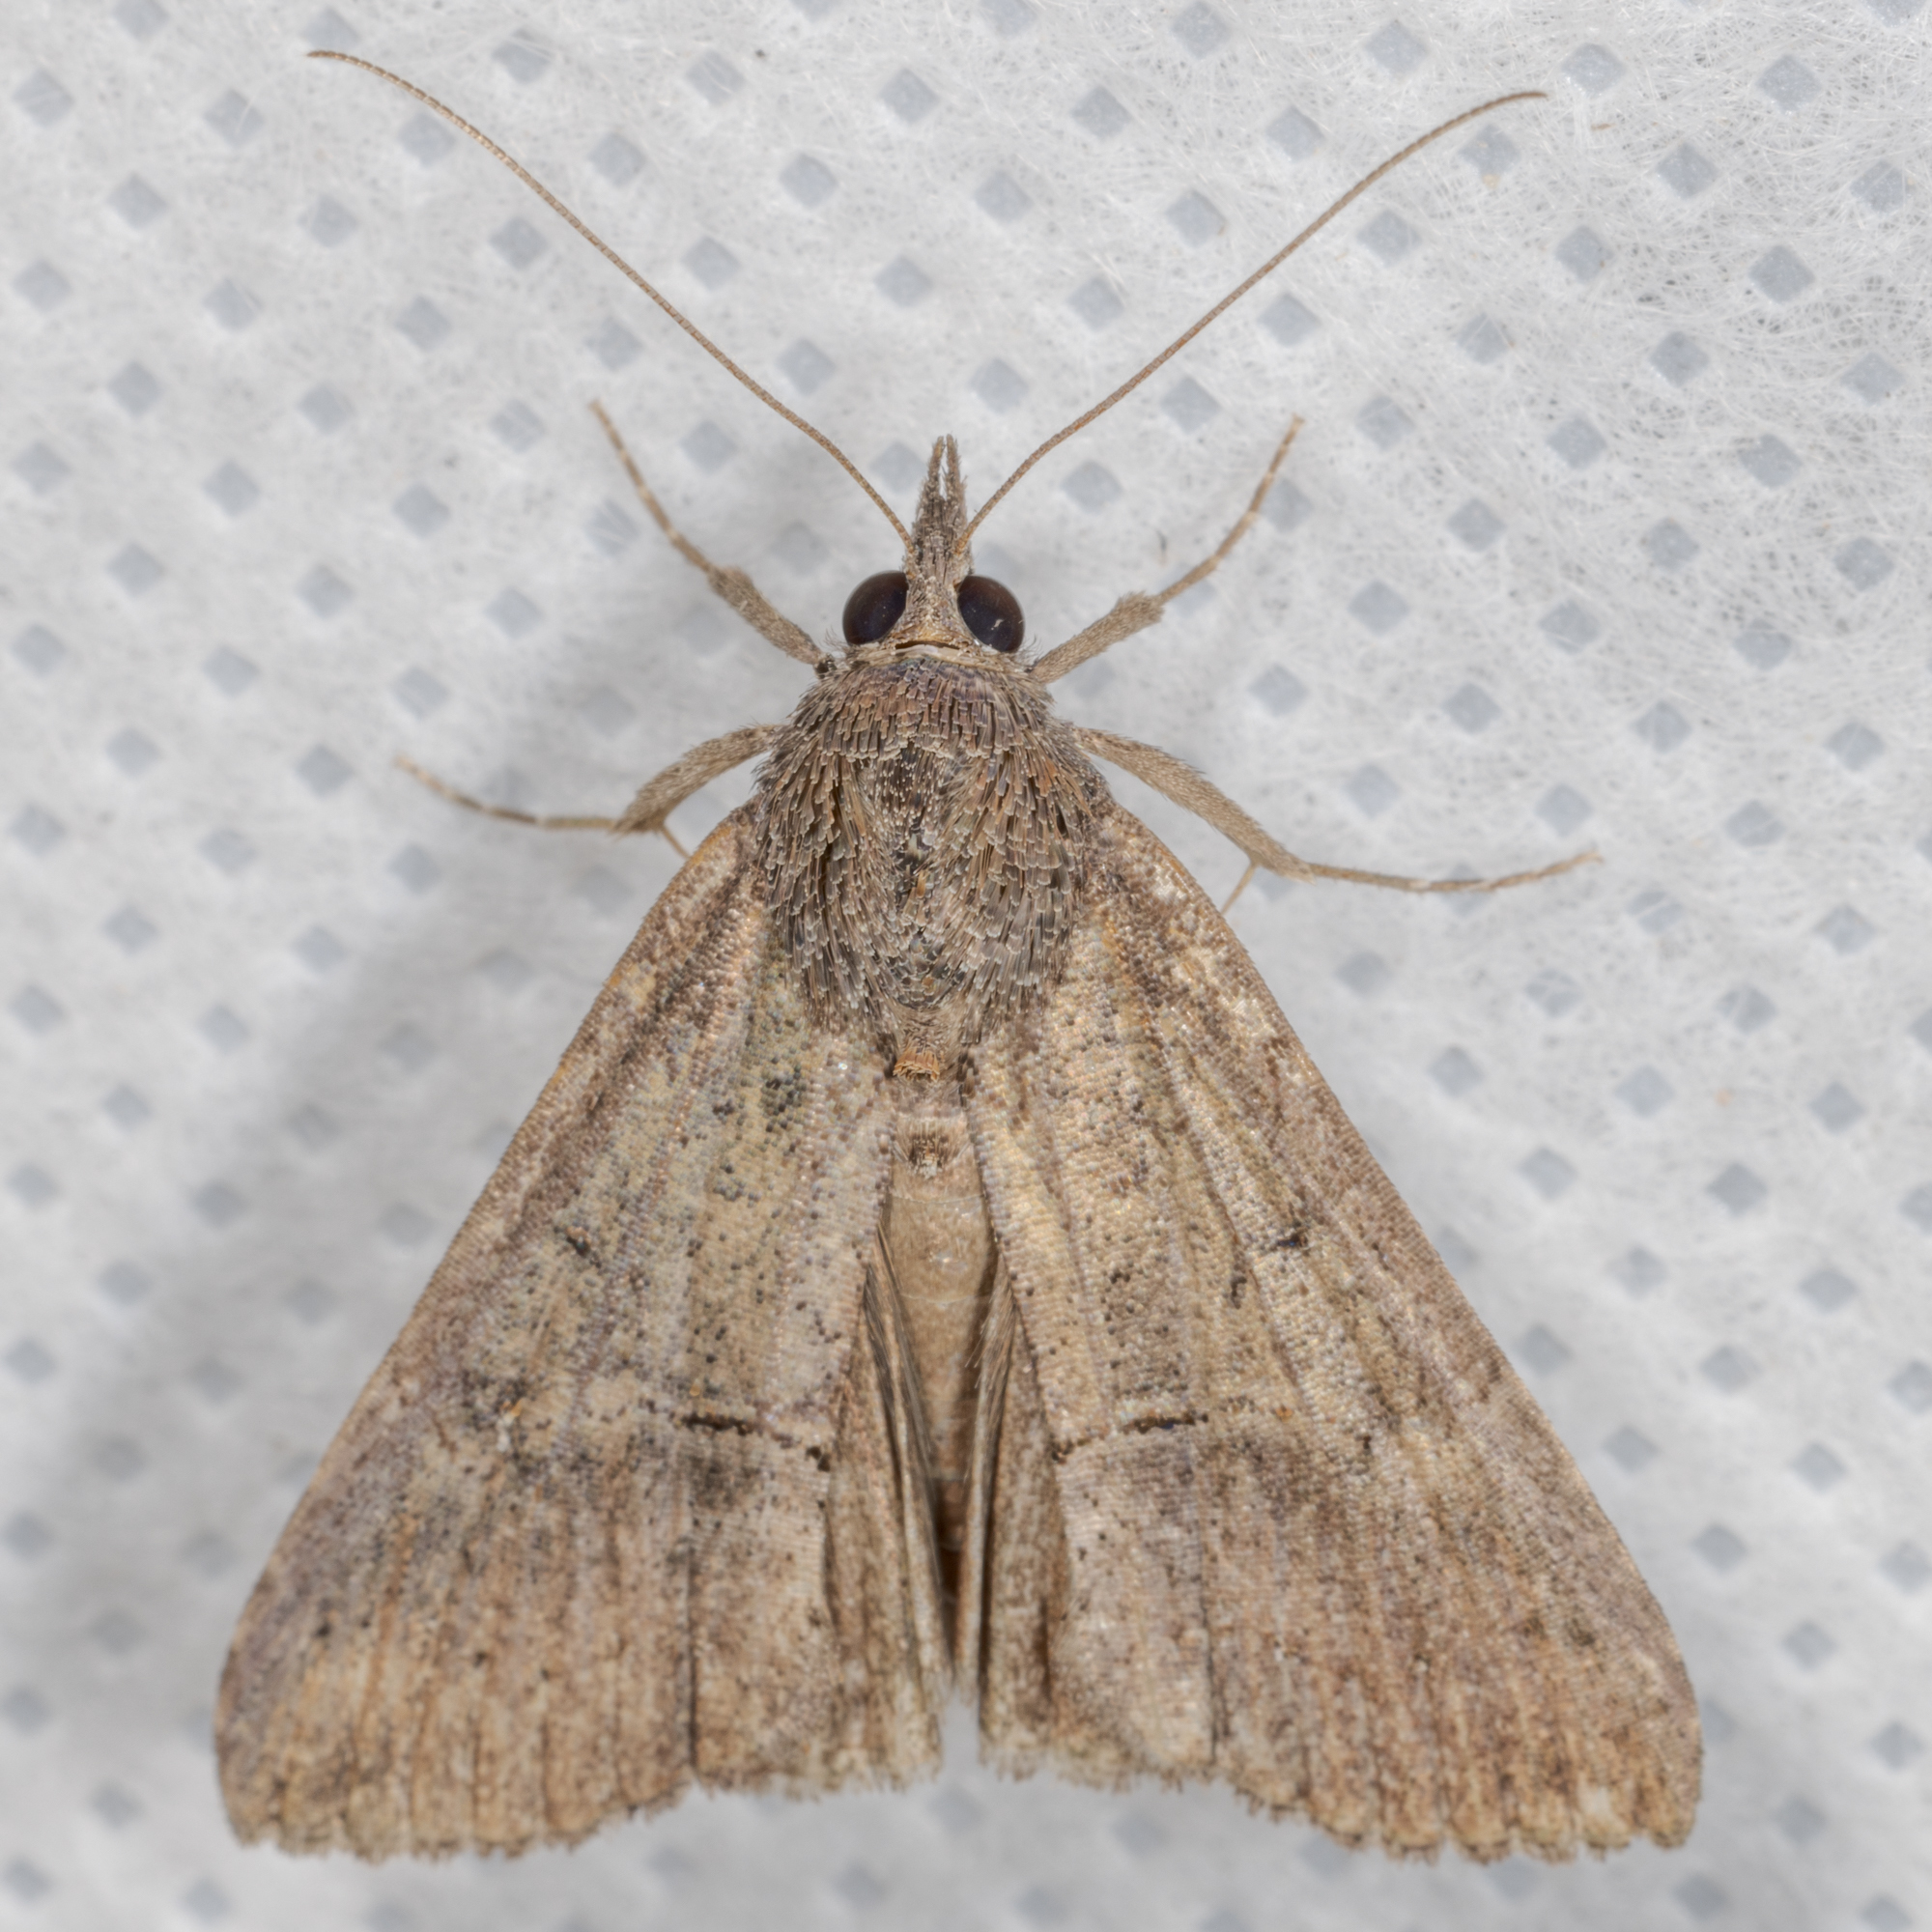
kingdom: Animalia
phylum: Arthropoda
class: Insecta
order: Lepidoptera
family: Erebidae
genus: Hypena
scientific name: Hypena scabra
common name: Green cloverworm
